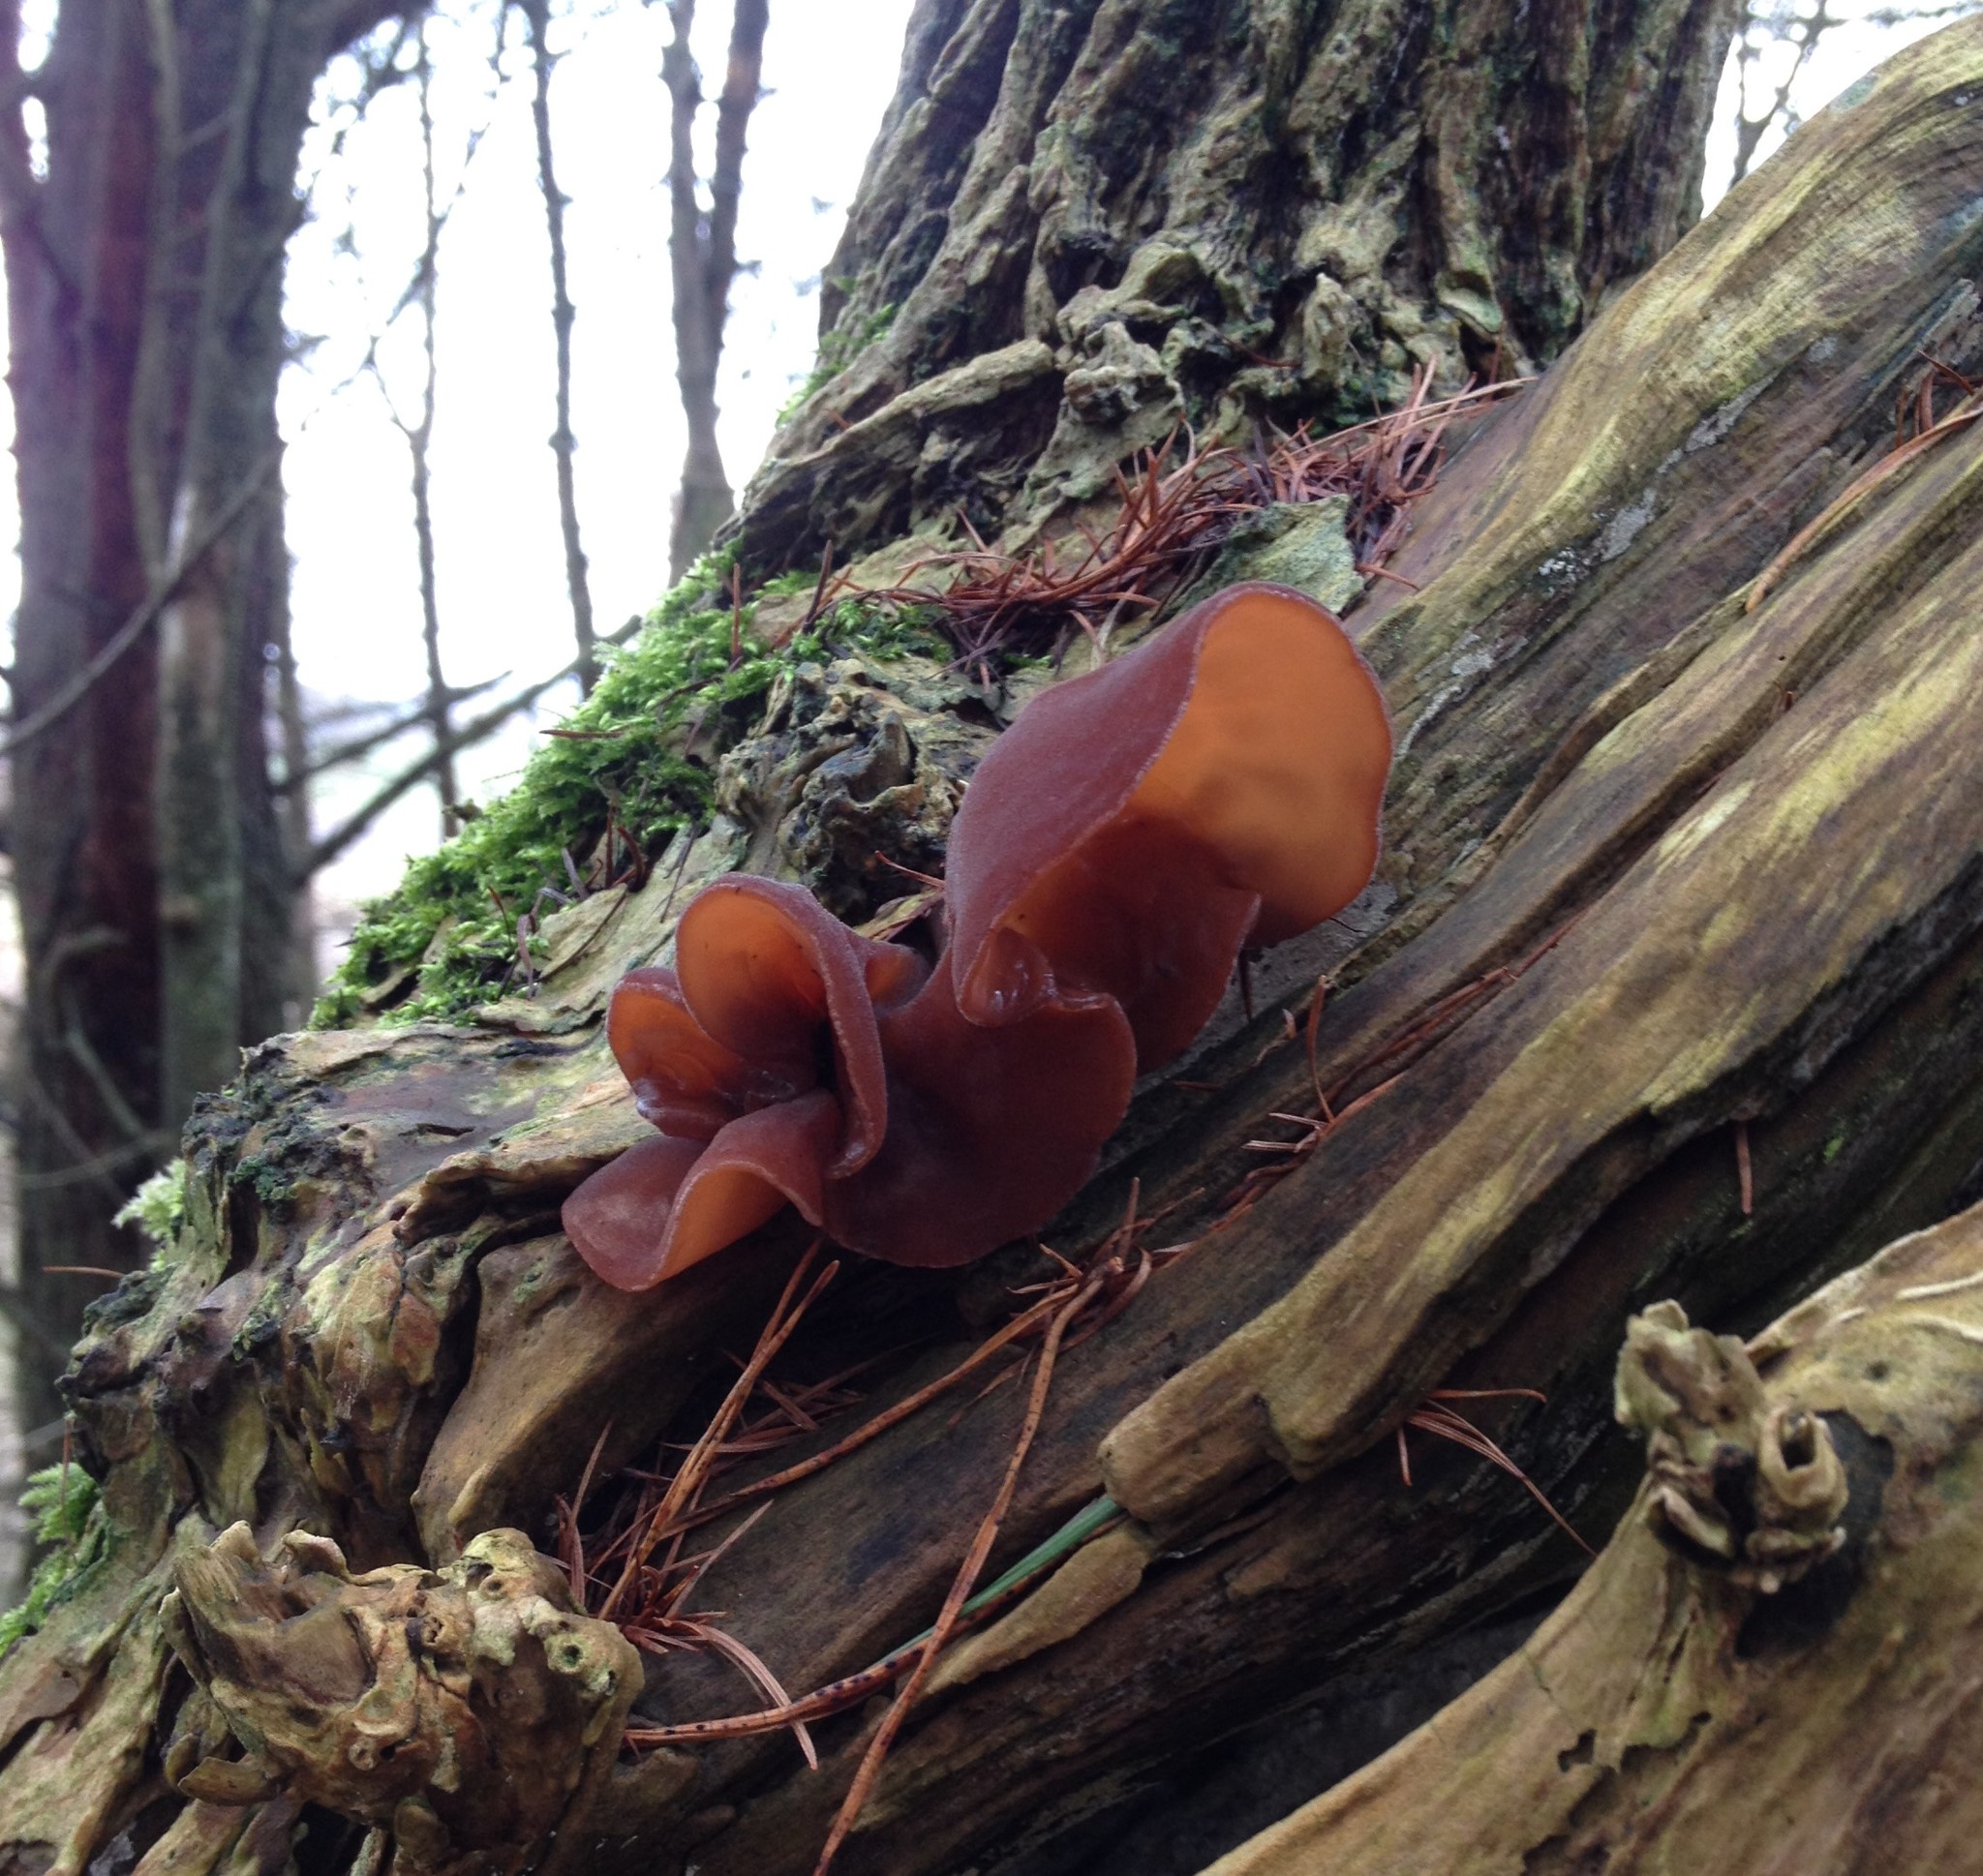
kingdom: Fungi
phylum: Basidiomycota
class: Agaricomycetes
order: Auriculariales
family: Auriculariaceae
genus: Auricularia
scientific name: Auricularia auricula-judae
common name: Jelly ear
